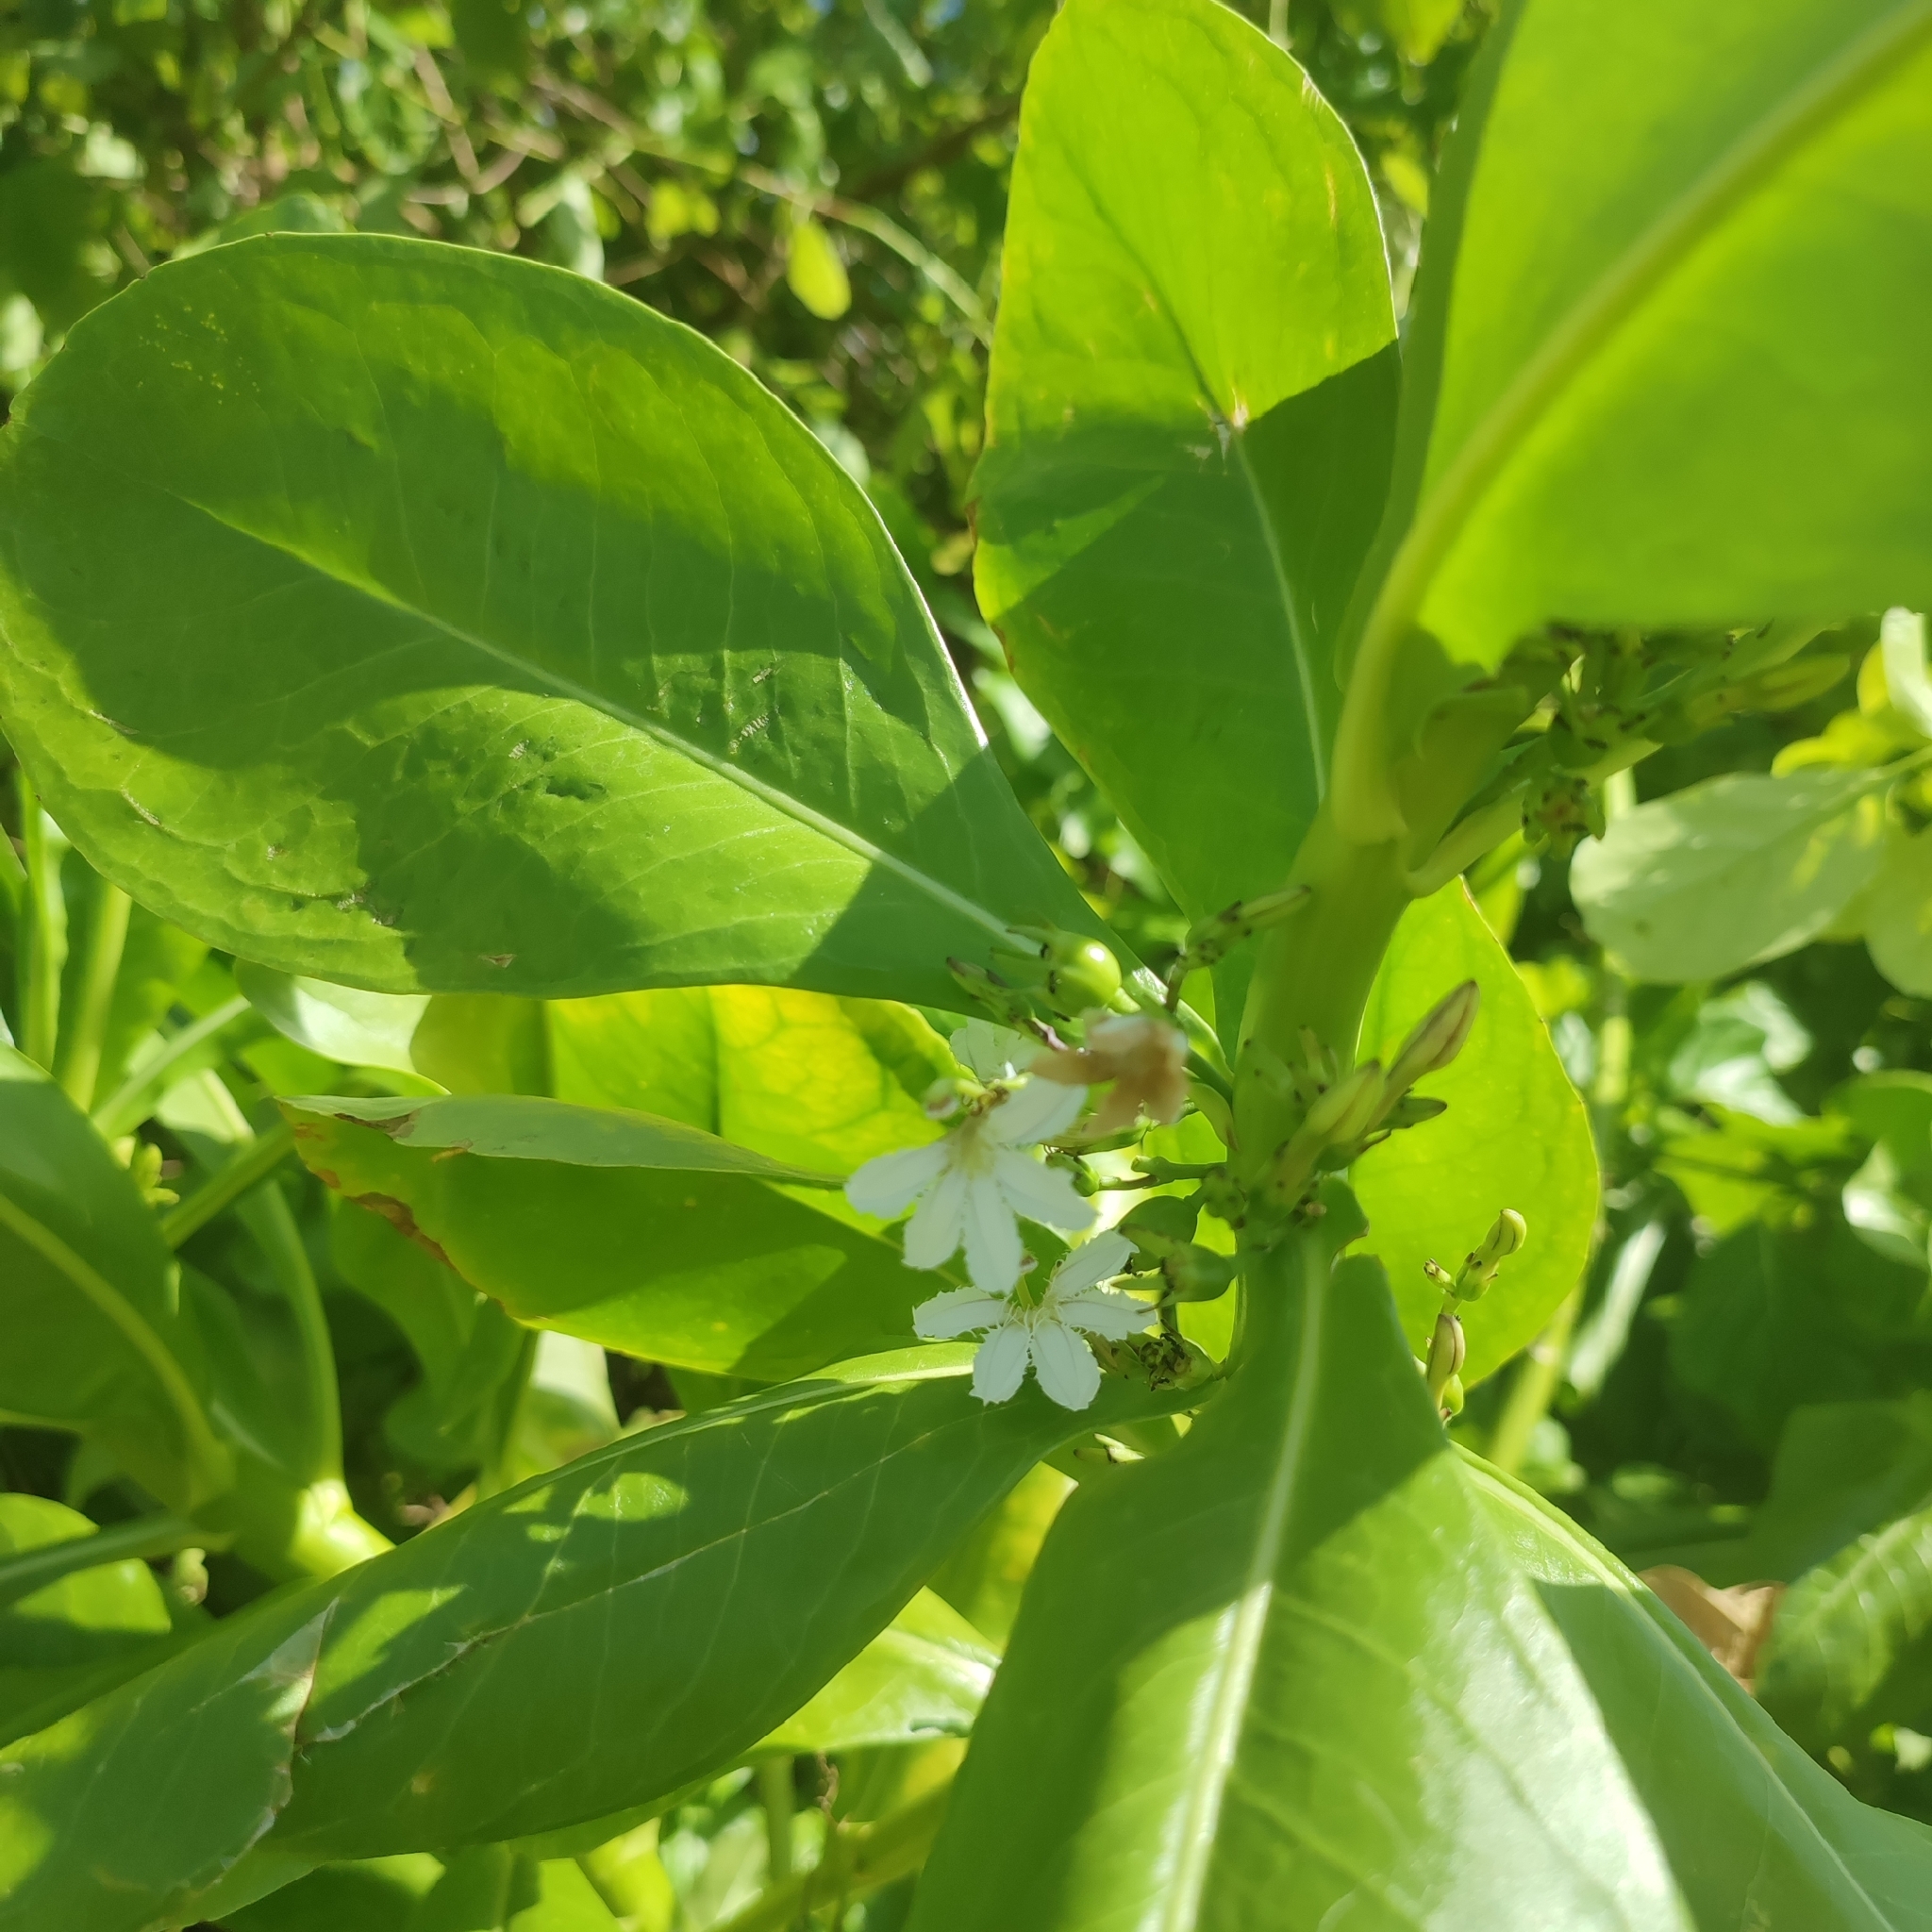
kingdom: Plantae
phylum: Tracheophyta
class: Magnoliopsida
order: Asterales
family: Goodeniaceae
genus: Scaevola
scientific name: Scaevola taccada
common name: Sea lettucetree
